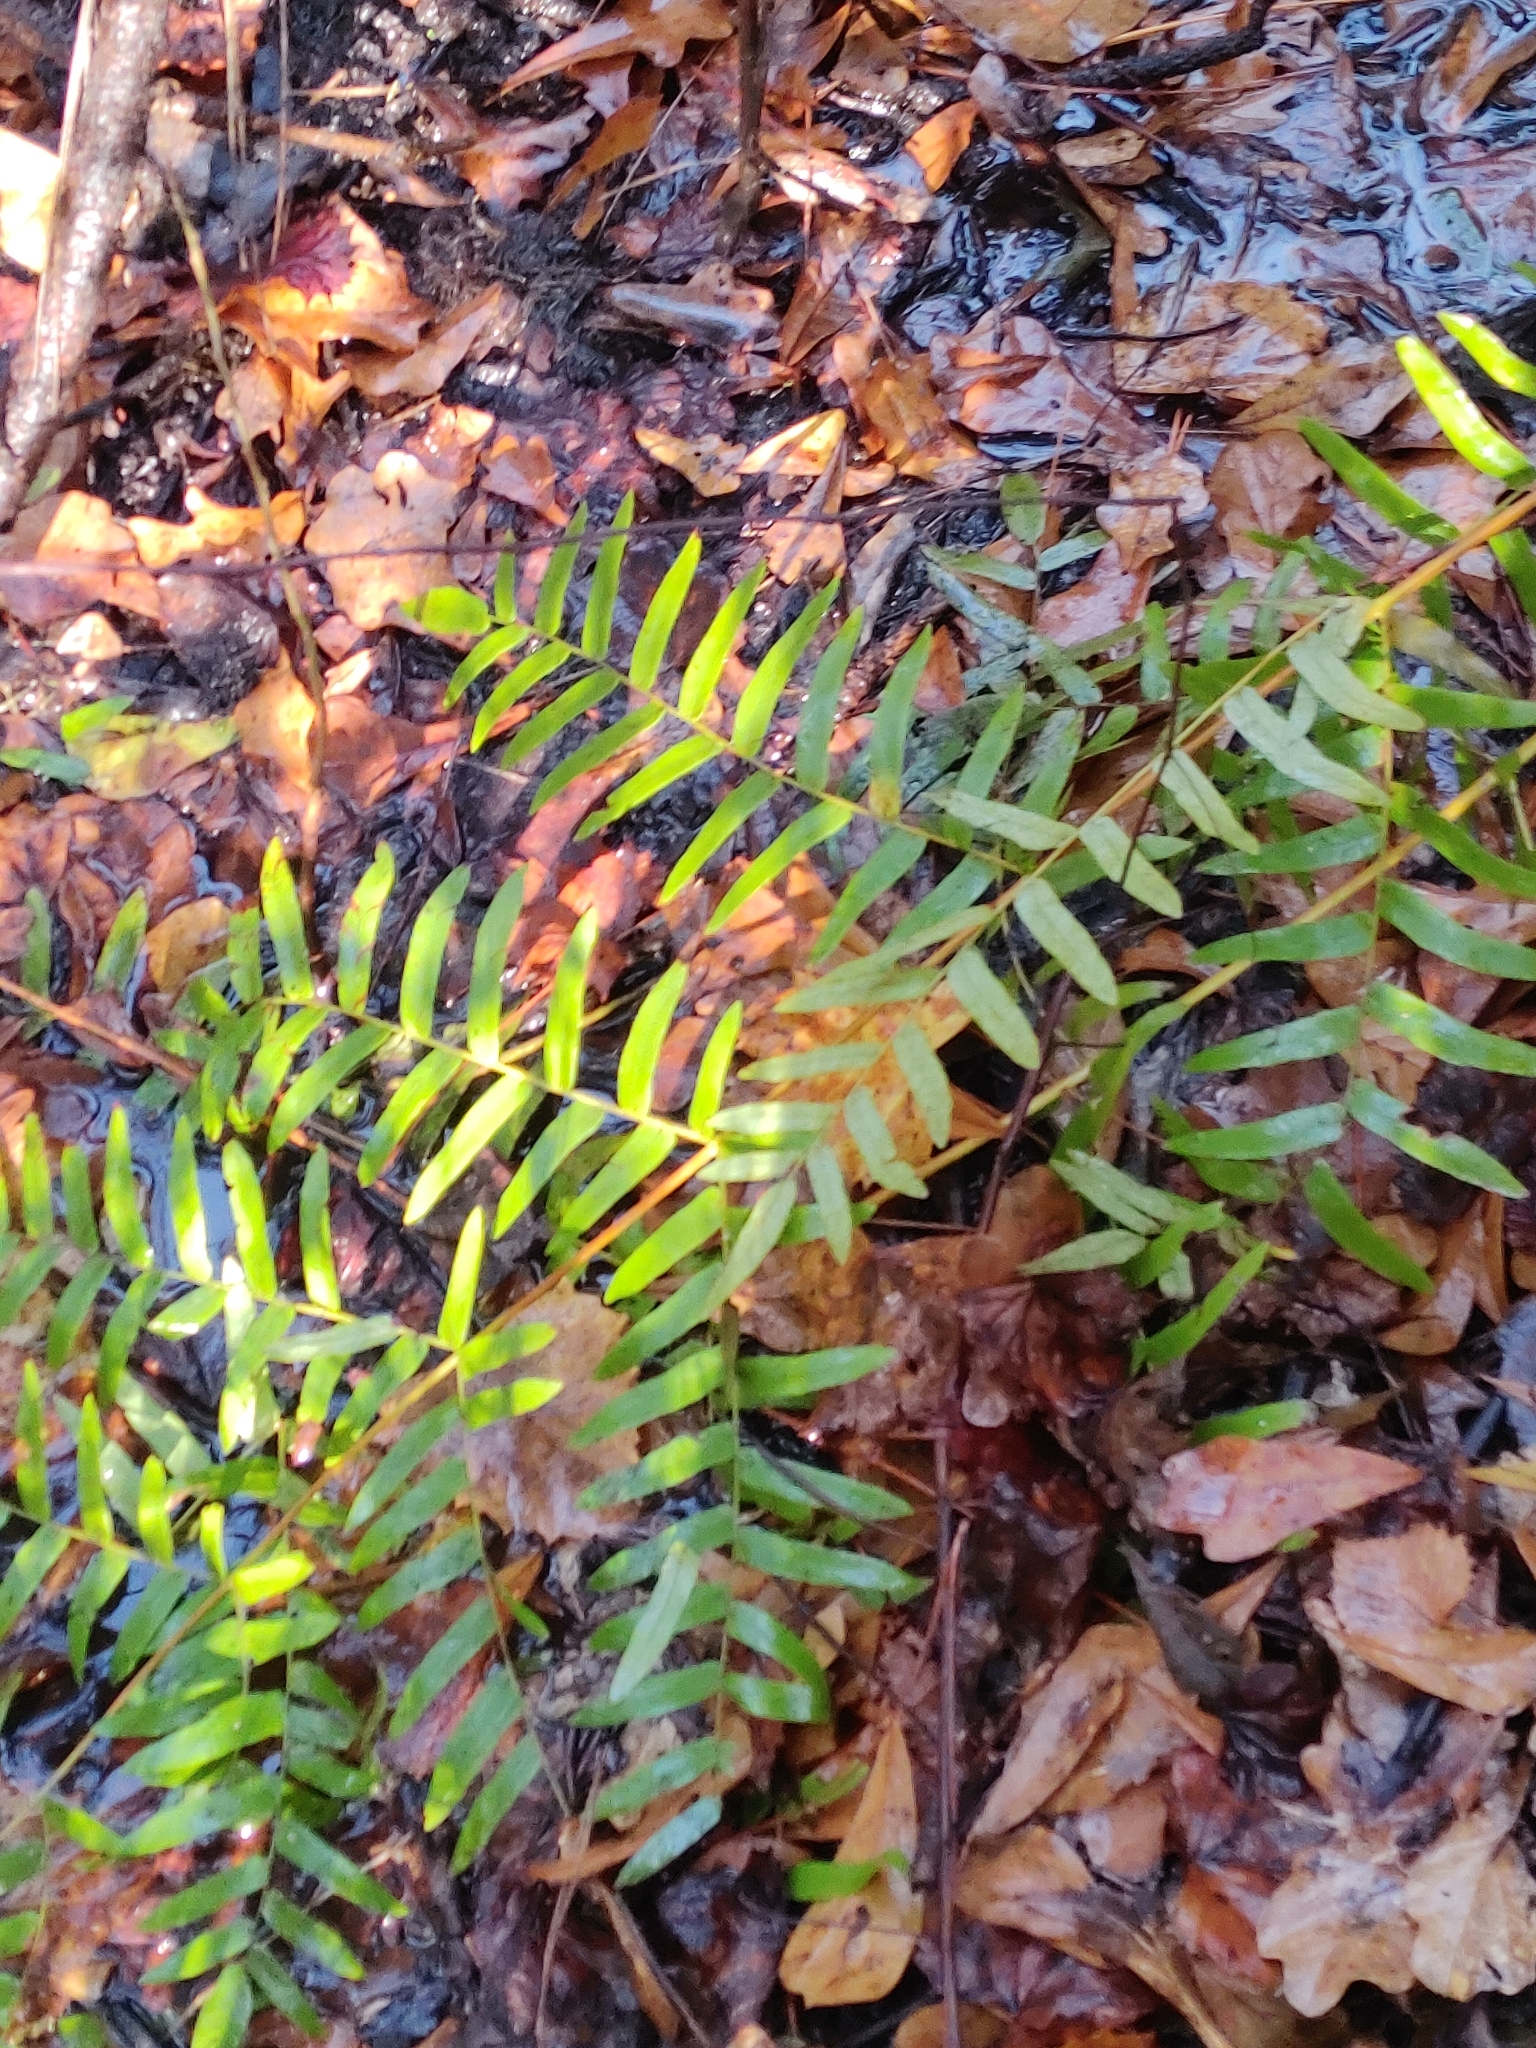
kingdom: Plantae
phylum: Tracheophyta
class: Polypodiopsida
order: Osmundales
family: Osmundaceae
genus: Osmunda
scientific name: Osmunda spectabilis
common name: American royal fern
